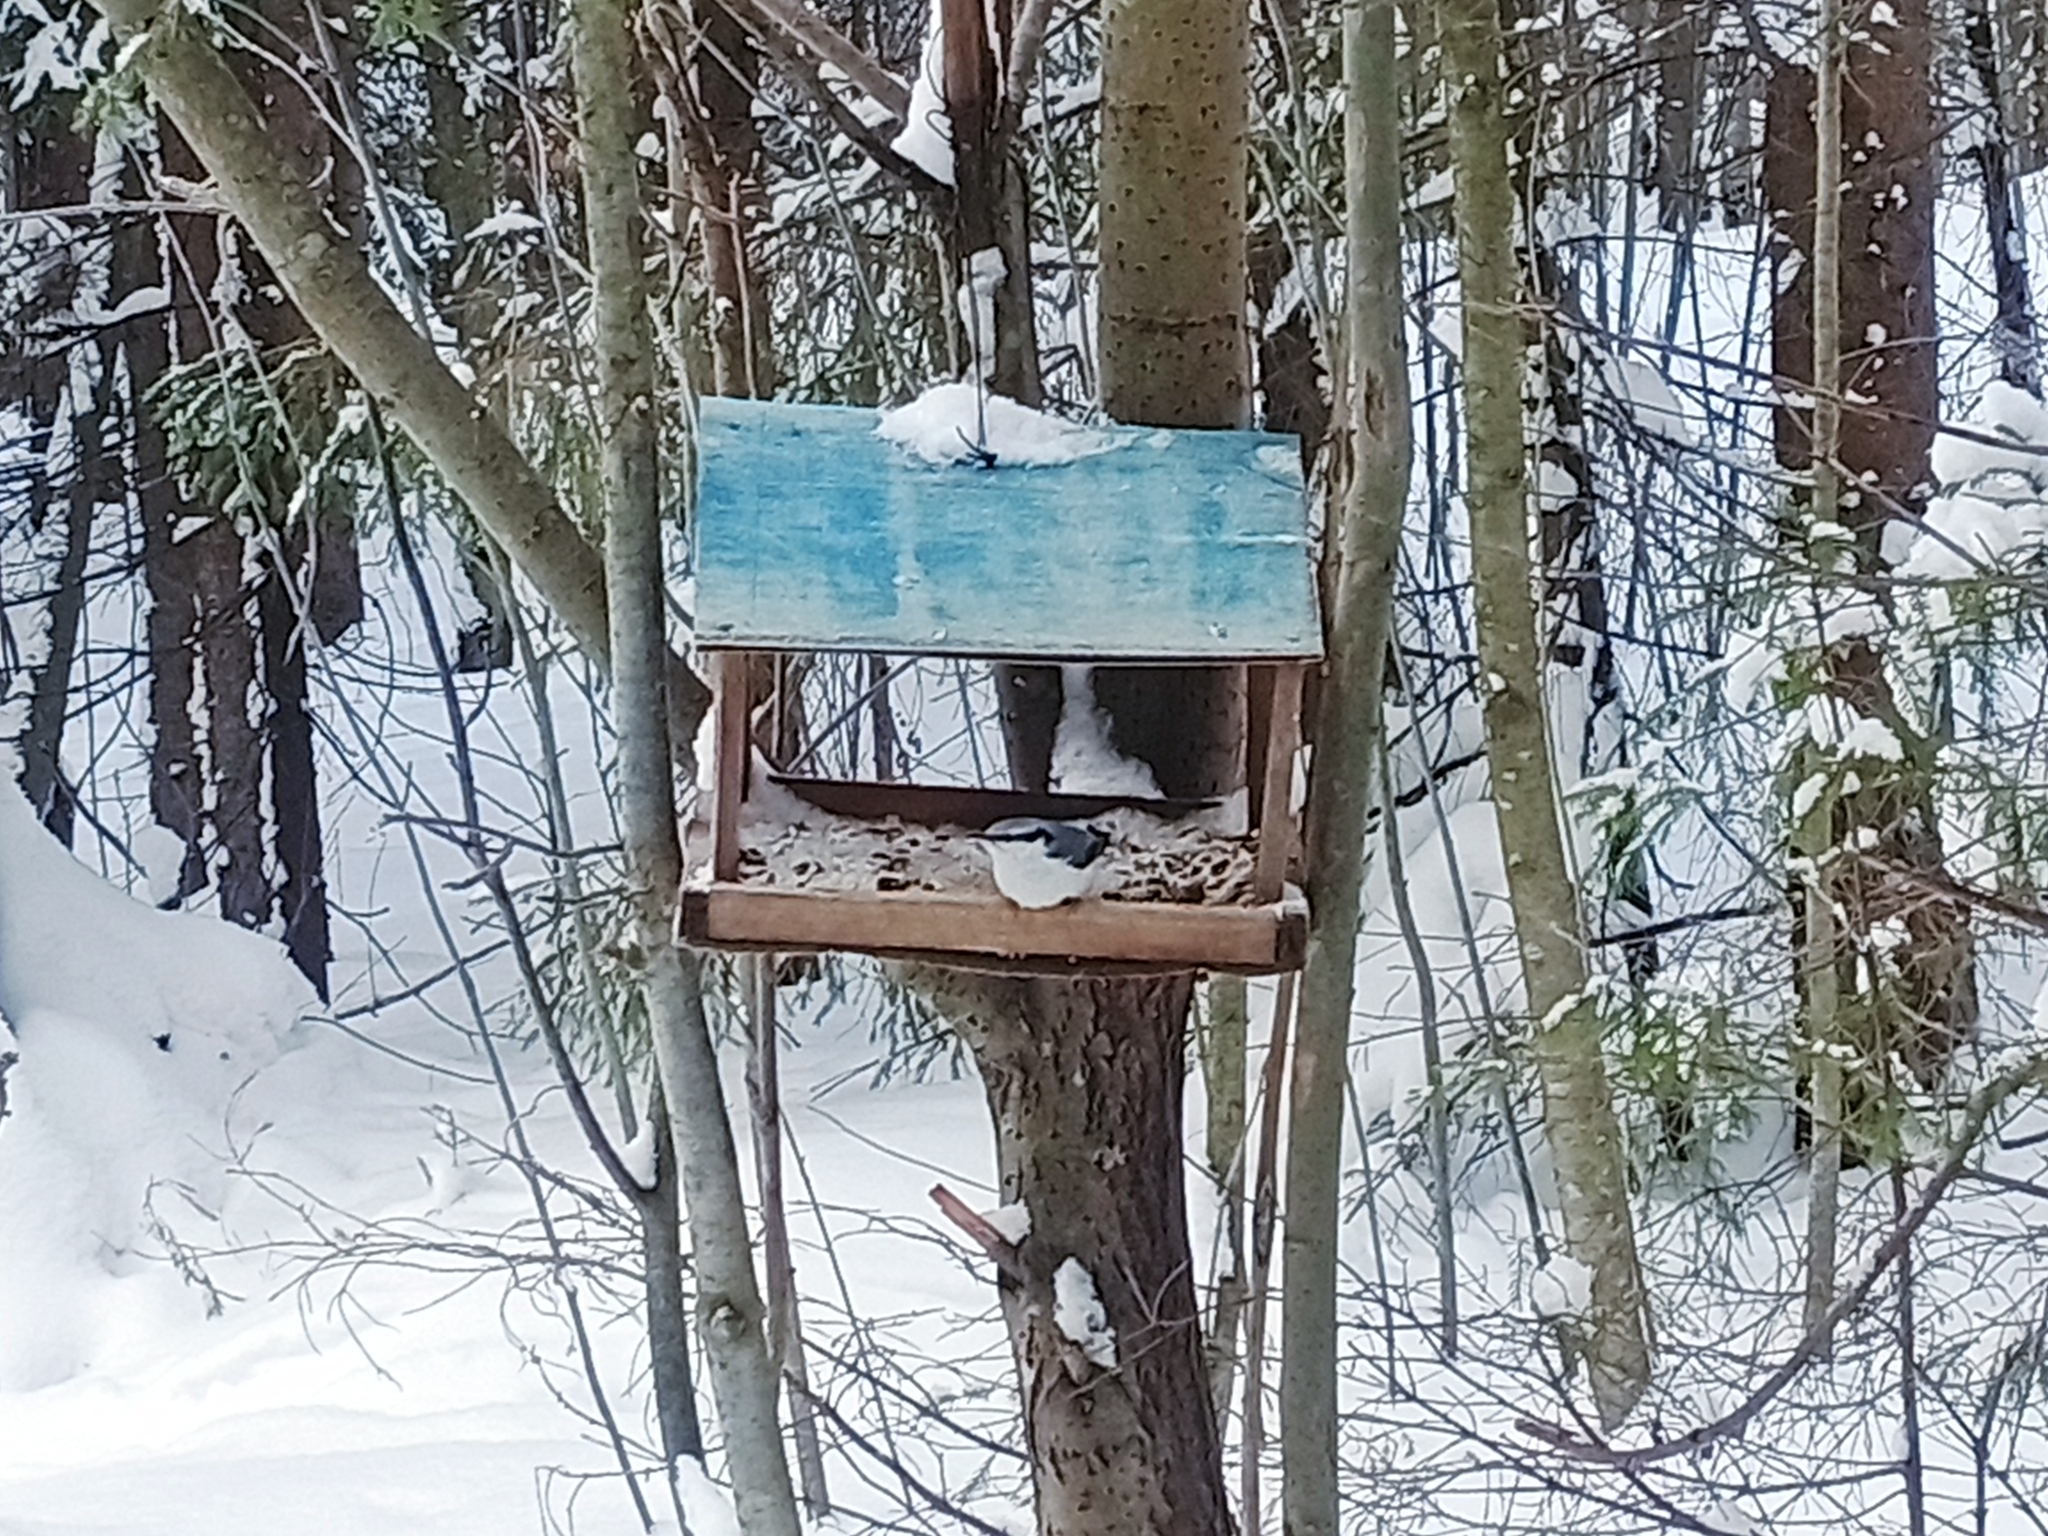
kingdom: Animalia
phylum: Chordata
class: Aves
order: Passeriformes
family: Sittidae
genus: Sitta
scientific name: Sitta europaea
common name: Eurasian nuthatch
